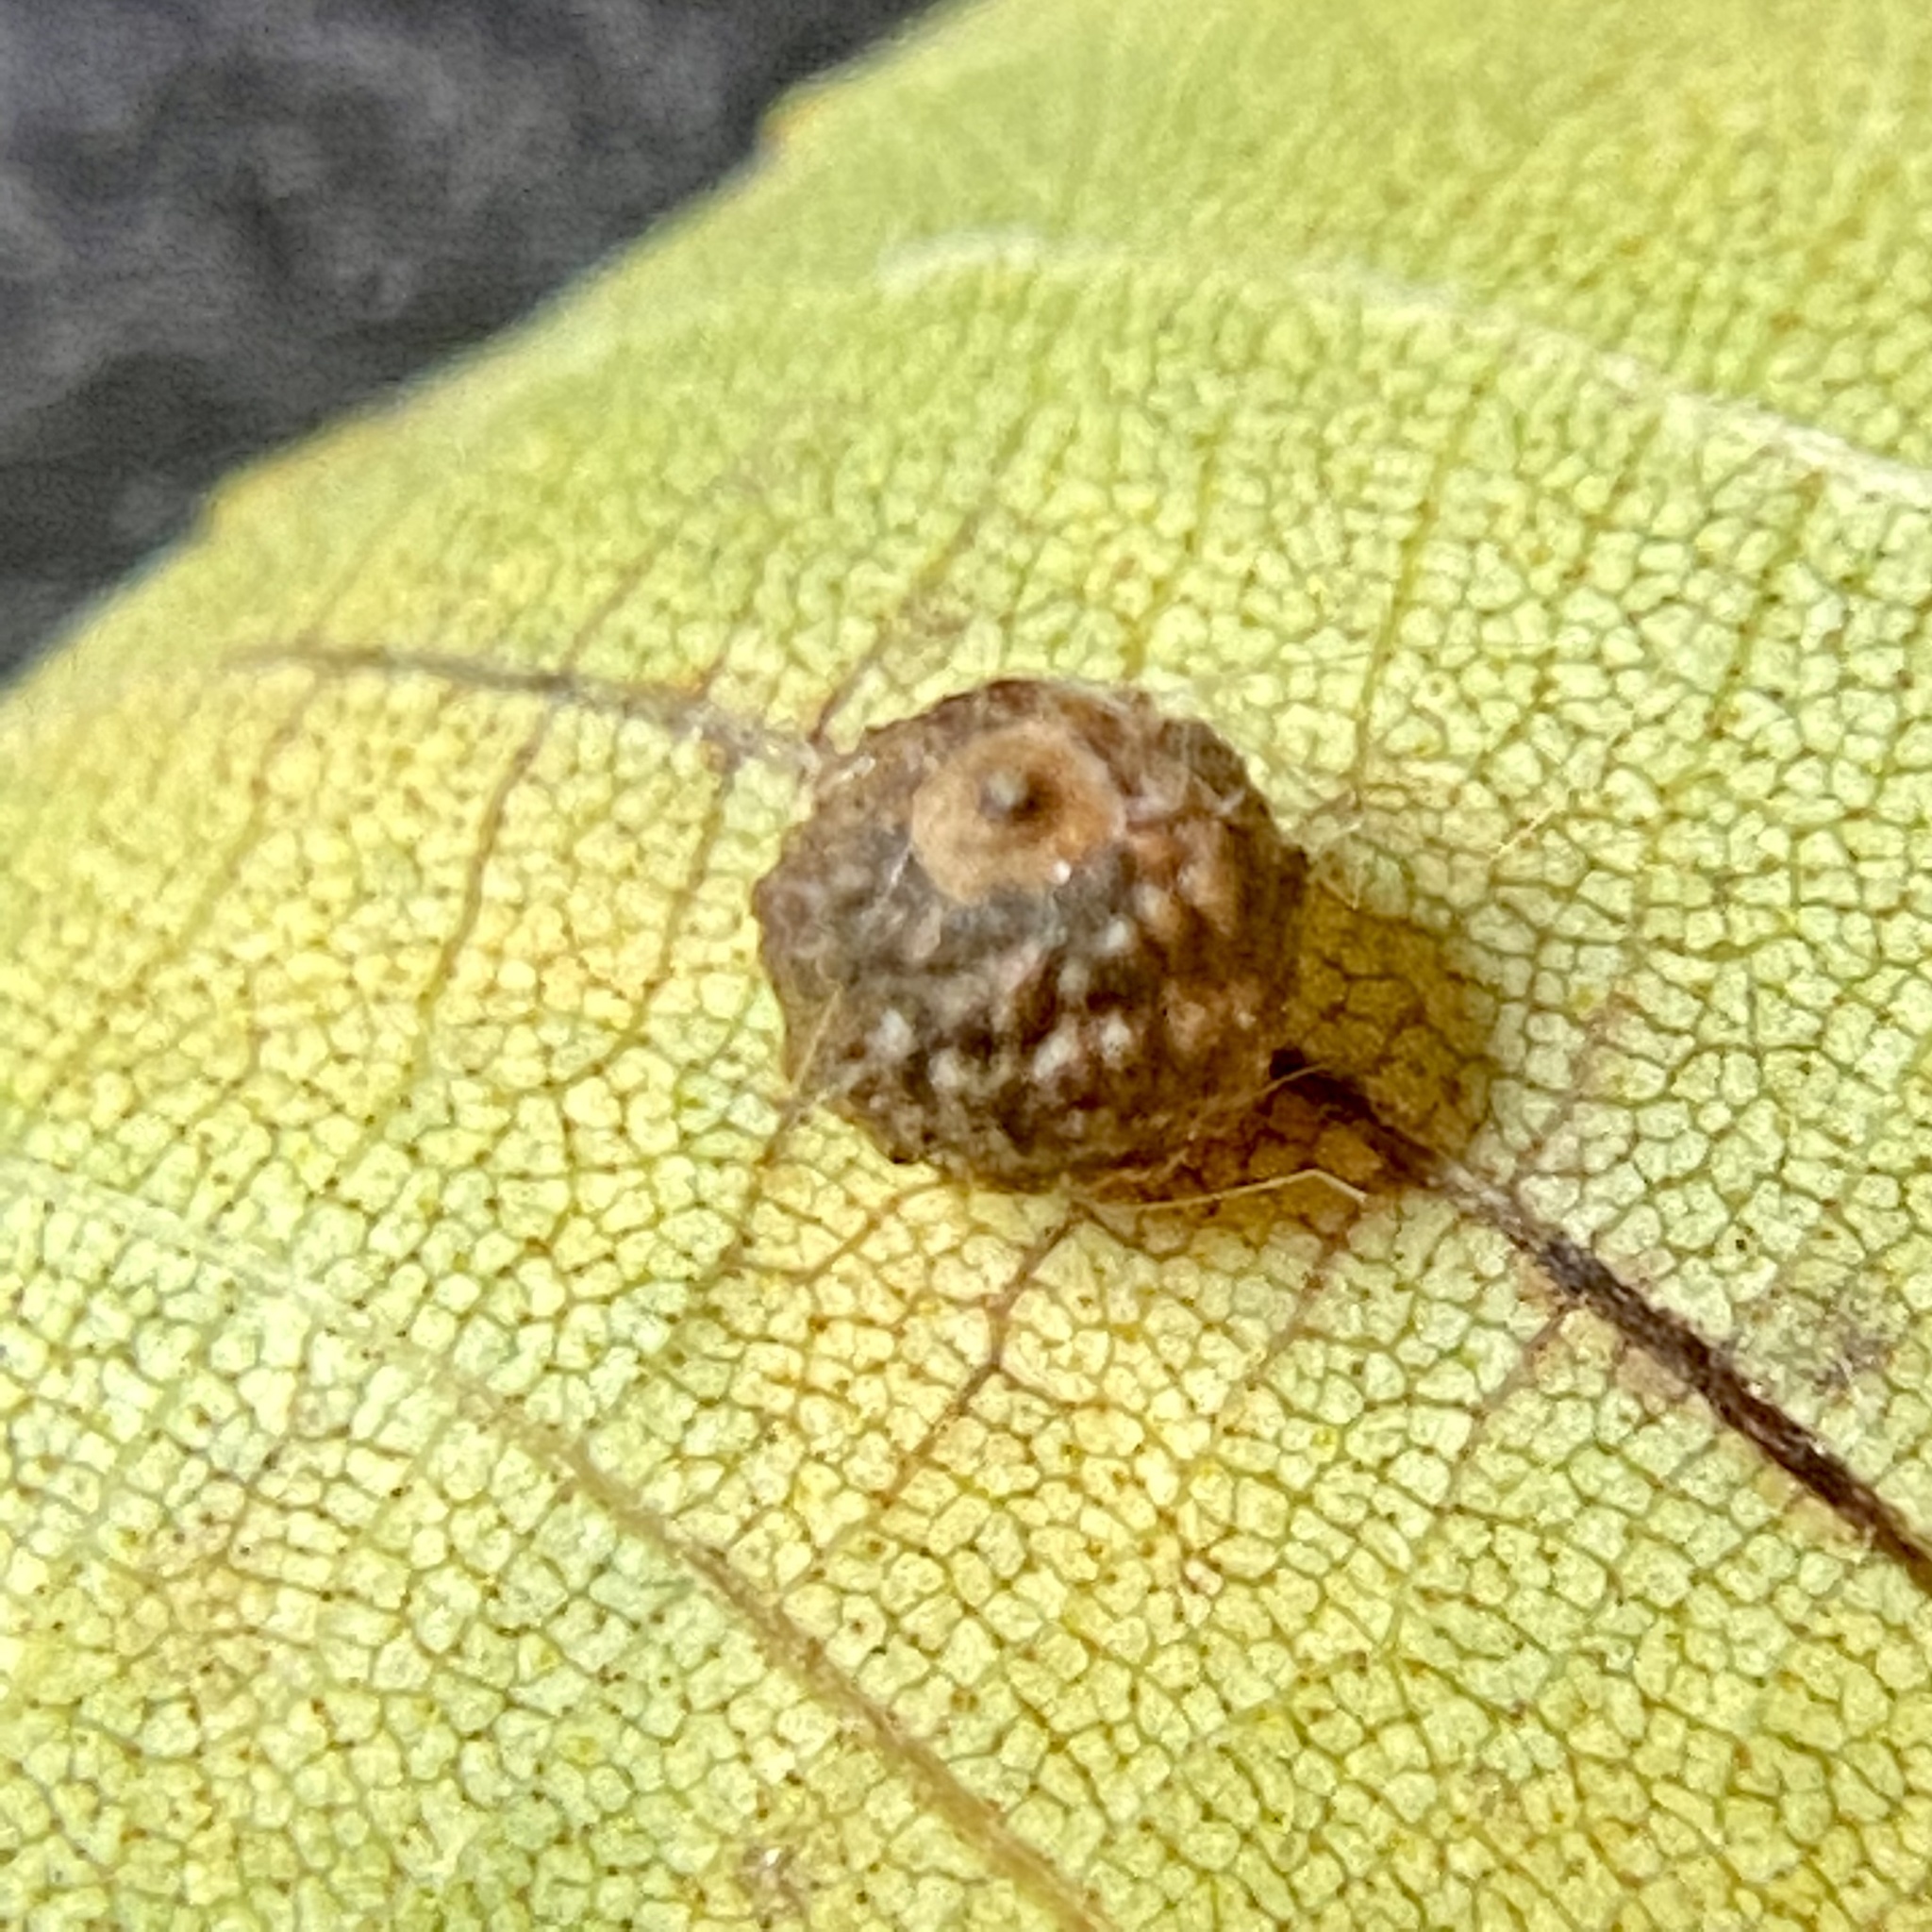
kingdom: Animalia
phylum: Arthropoda
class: Insecta
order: Diptera
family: Cecidomyiidae
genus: Caryomyia
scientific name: Caryomyia tuberidolium
